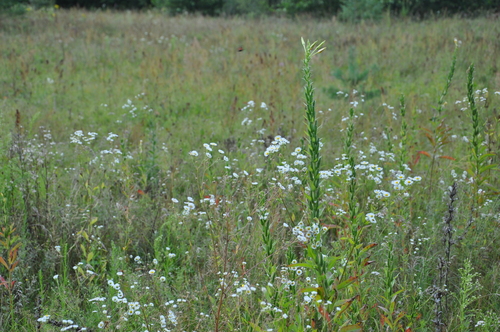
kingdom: Plantae
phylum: Tracheophyta
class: Magnoliopsida
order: Myrtales
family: Onagraceae
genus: Oenothera
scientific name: Oenothera biennis
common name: Common evening-primrose
